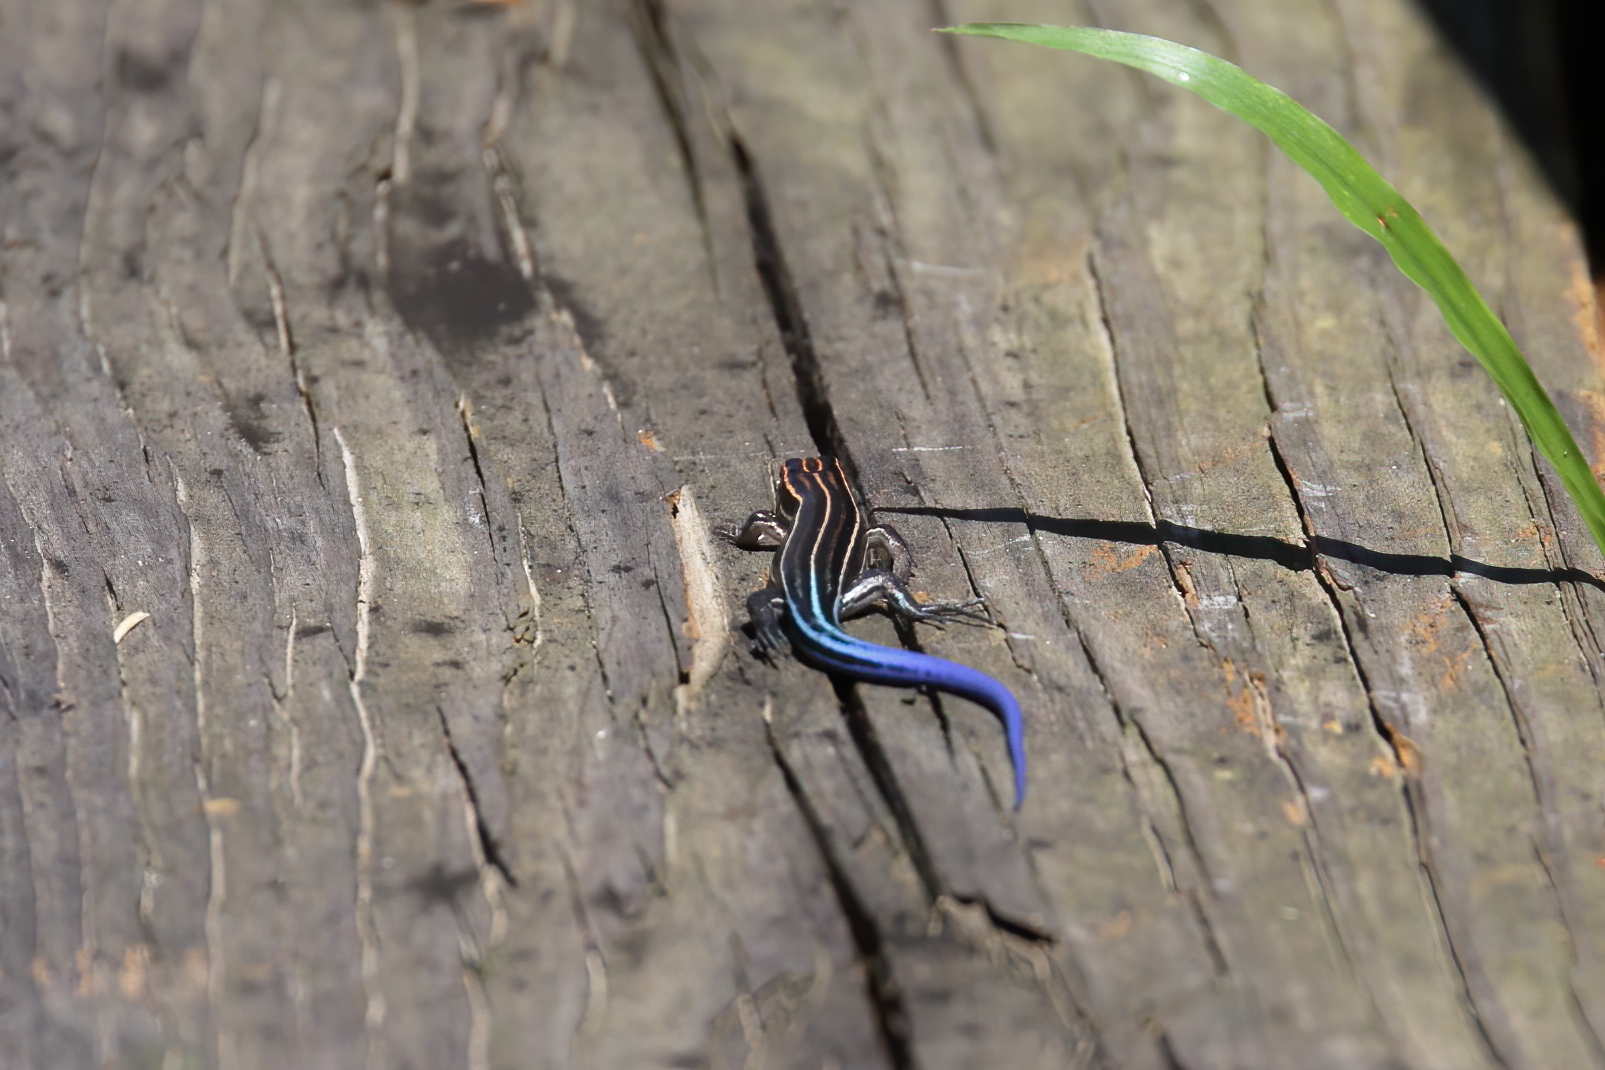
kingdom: Animalia
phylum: Chordata
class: Squamata
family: Scincidae
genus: Plestiodon
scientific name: Plestiodon inexpectatus
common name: Southeastern five-lined skink
